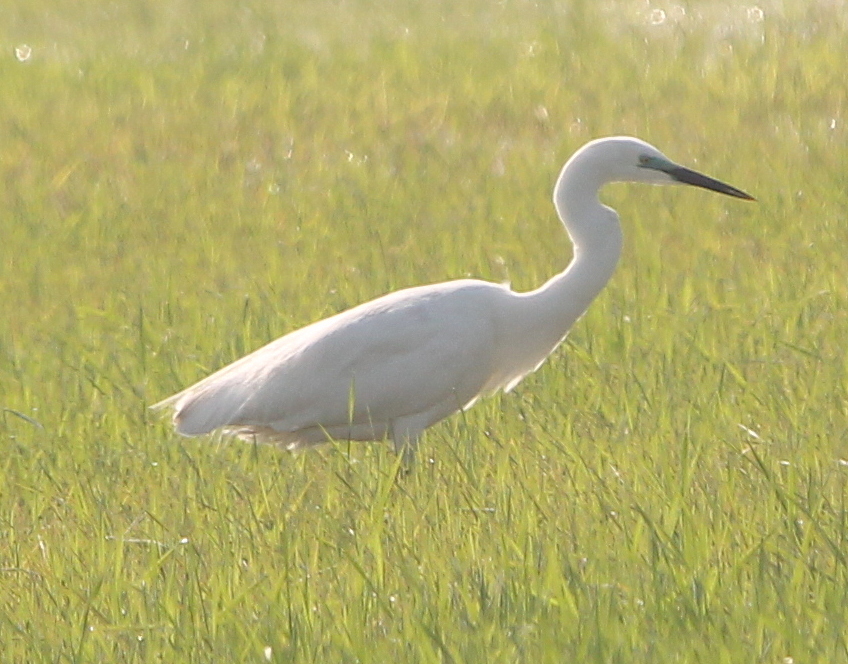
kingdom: Animalia
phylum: Chordata
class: Aves
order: Pelecaniformes
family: Ardeidae
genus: Egretta
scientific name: Egretta garzetta
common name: Little egret
